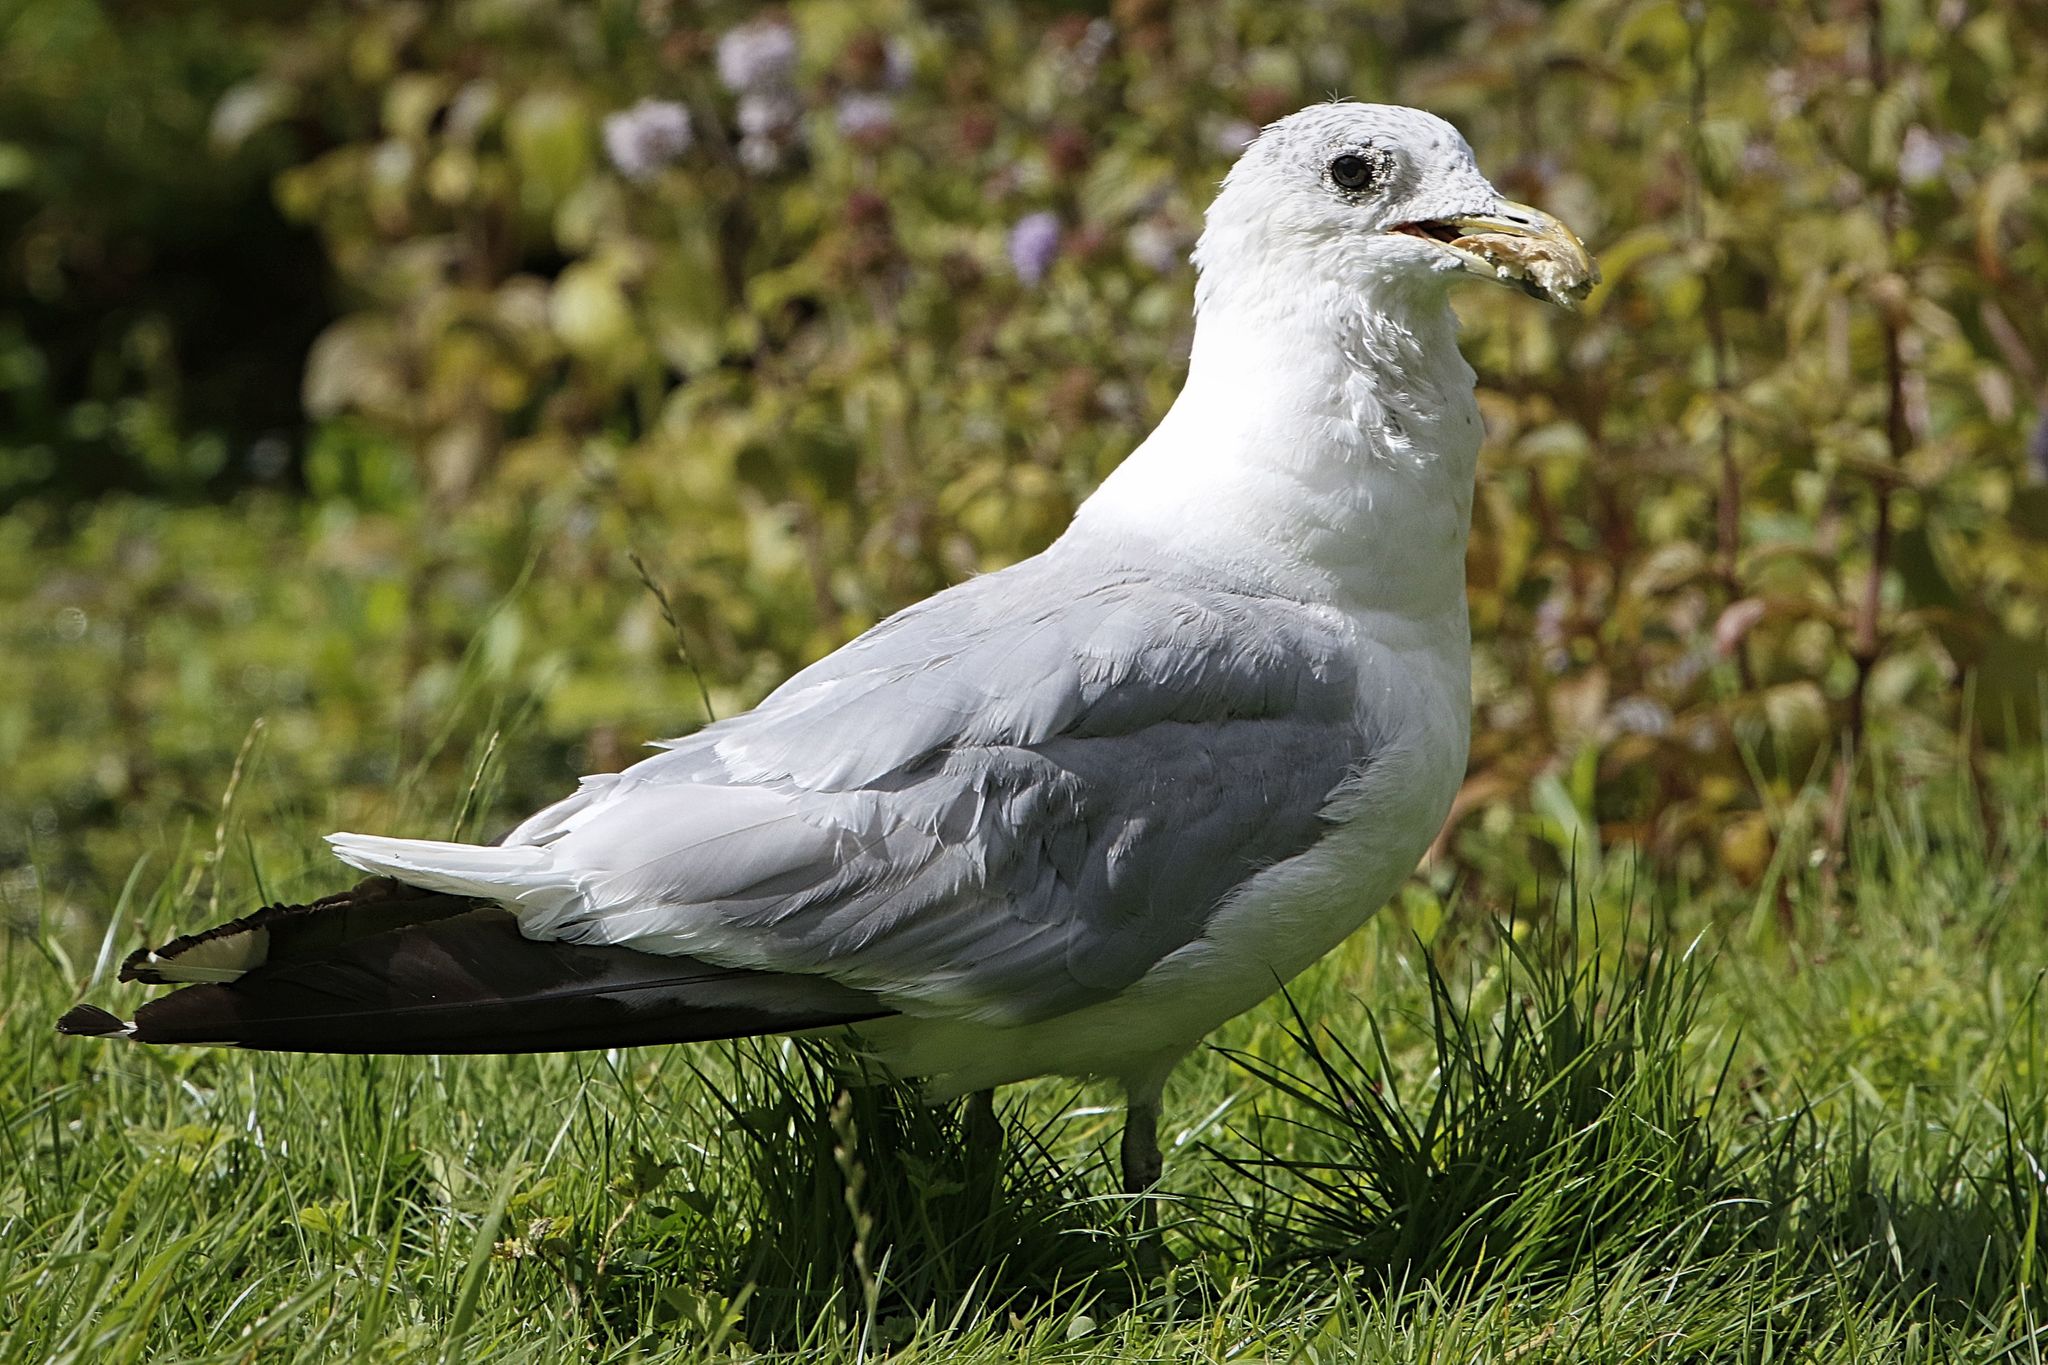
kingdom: Animalia
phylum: Chordata
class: Aves
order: Charadriiformes
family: Laridae
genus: Larus
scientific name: Larus canus
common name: Mew gull
